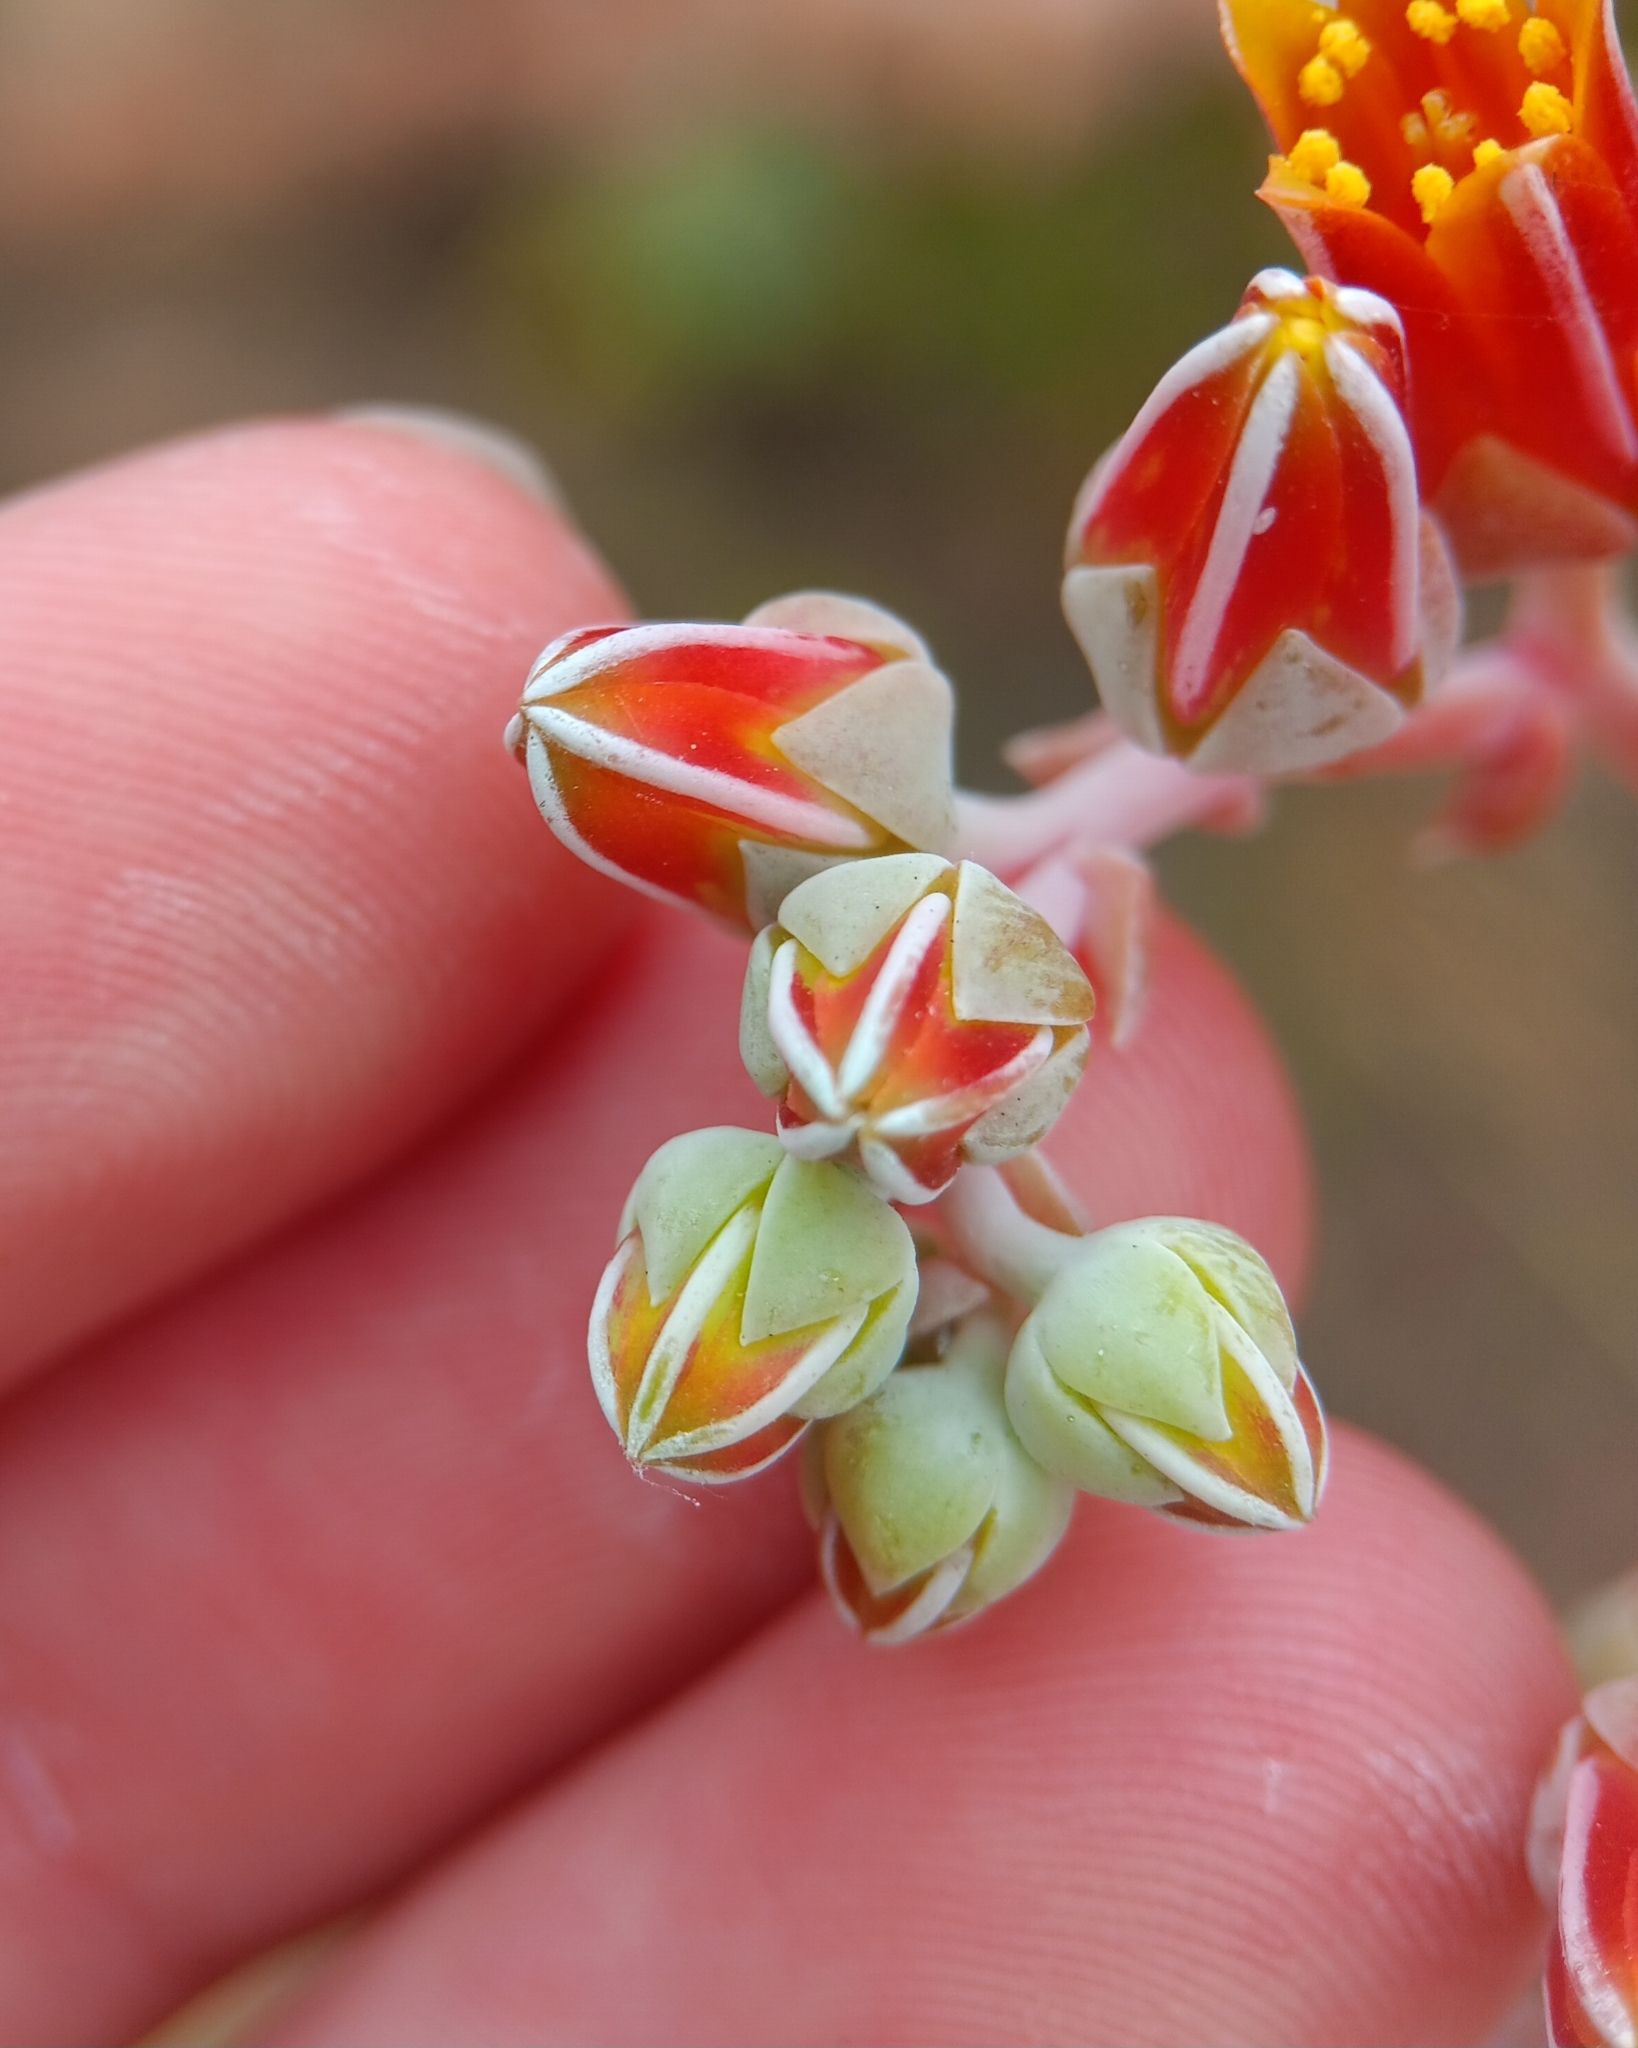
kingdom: Plantae
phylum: Tracheophyta
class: Magnoliopsida
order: Saxifragales
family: Crassulaceae
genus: Dudleya
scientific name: Dudleya lanceolata
